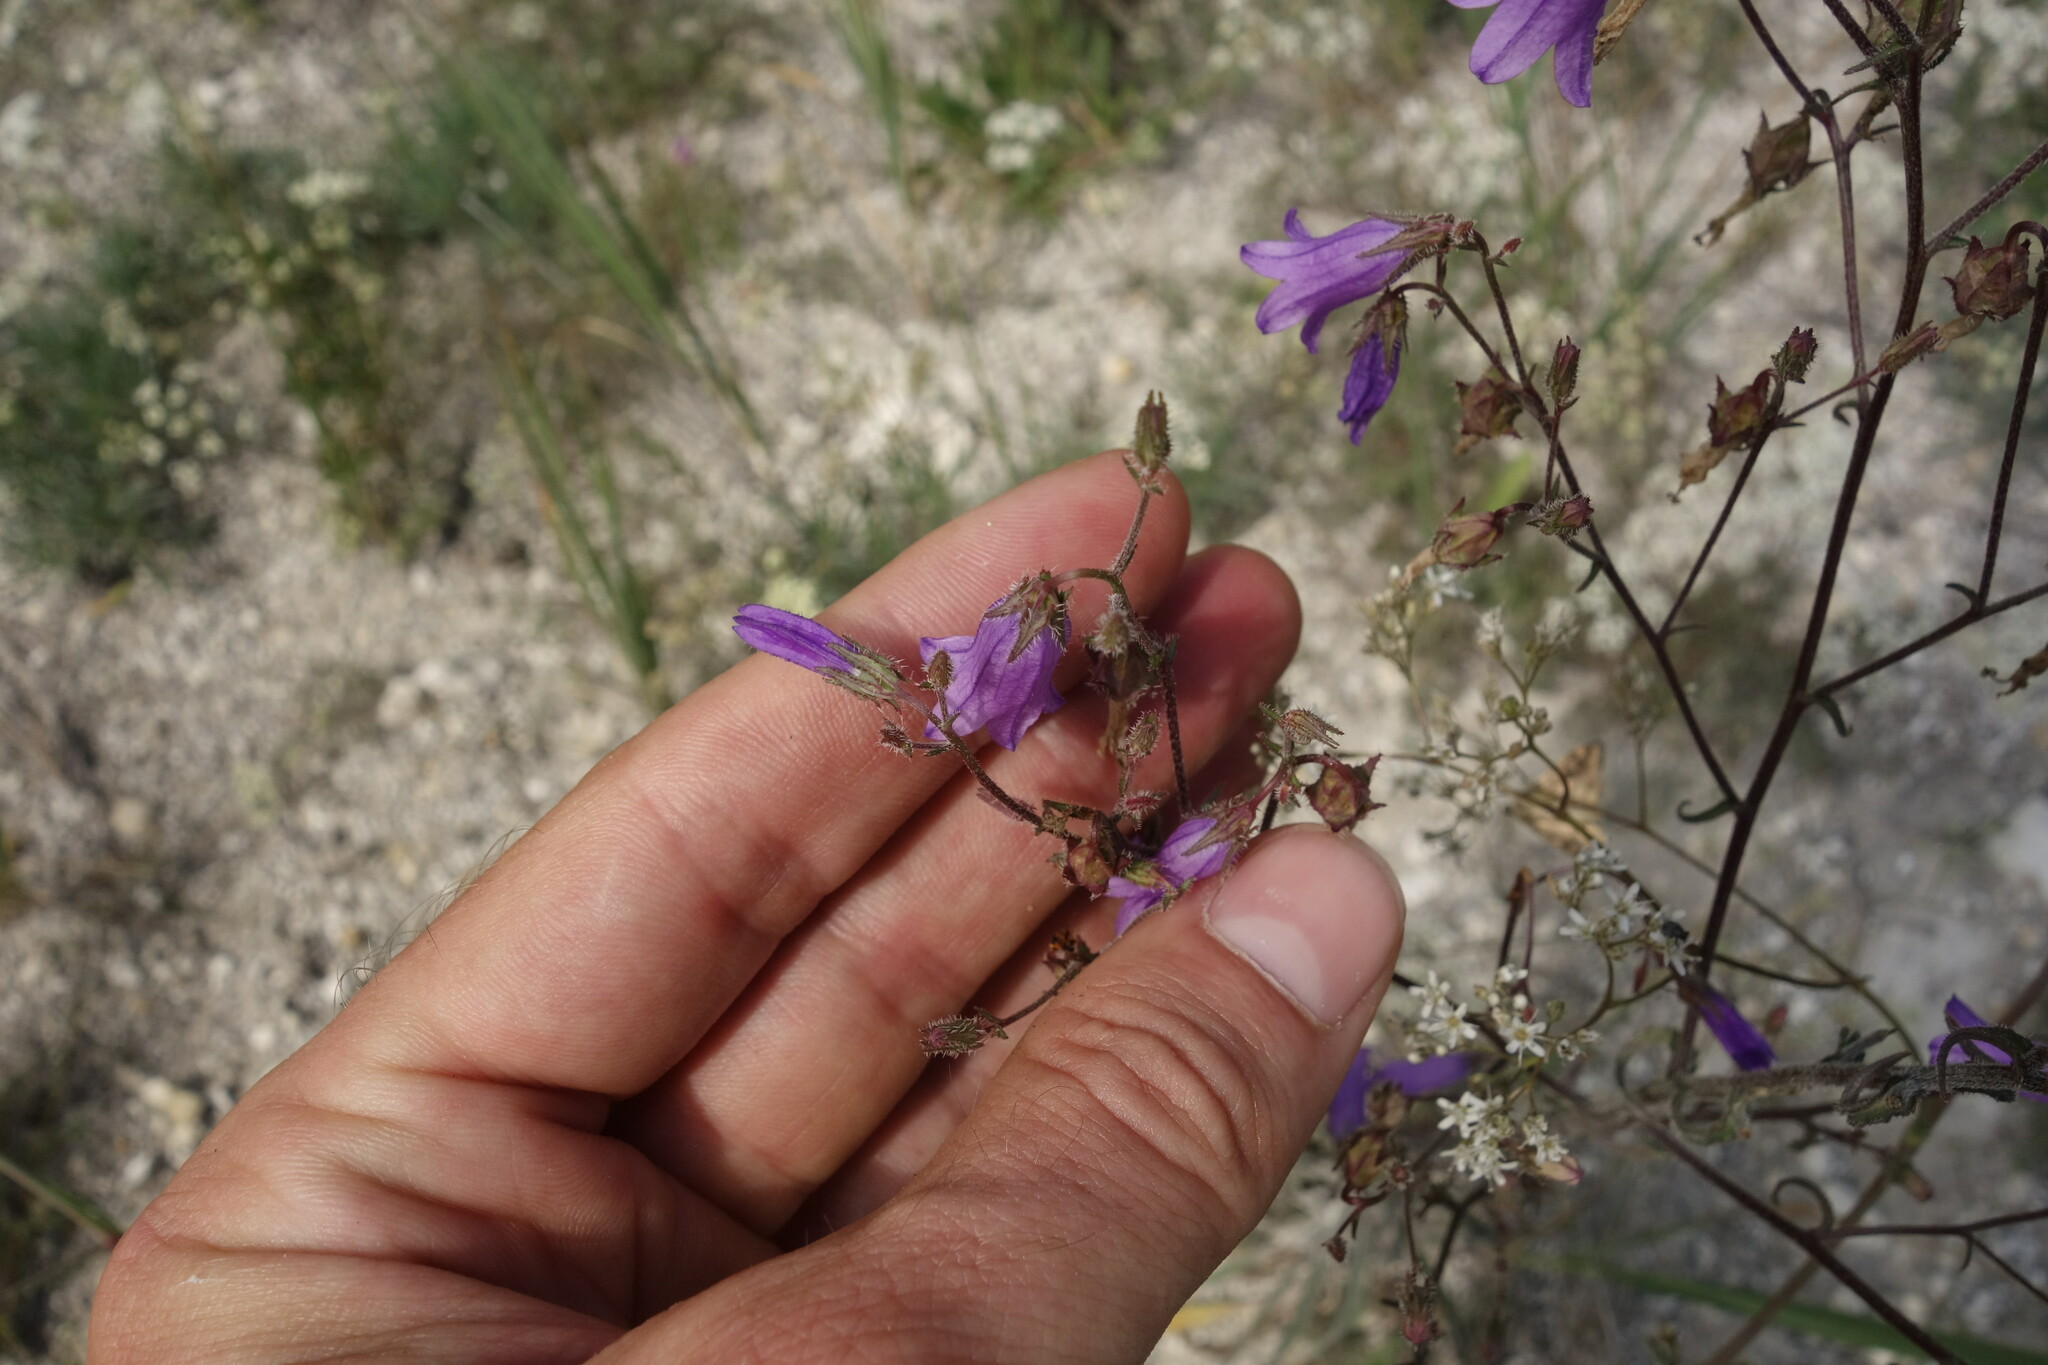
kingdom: Plantae
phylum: Tracheophyta
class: Magnoliopsida
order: Asterales
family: Campanulaceae
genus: Campanula
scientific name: Campanula sibirica
